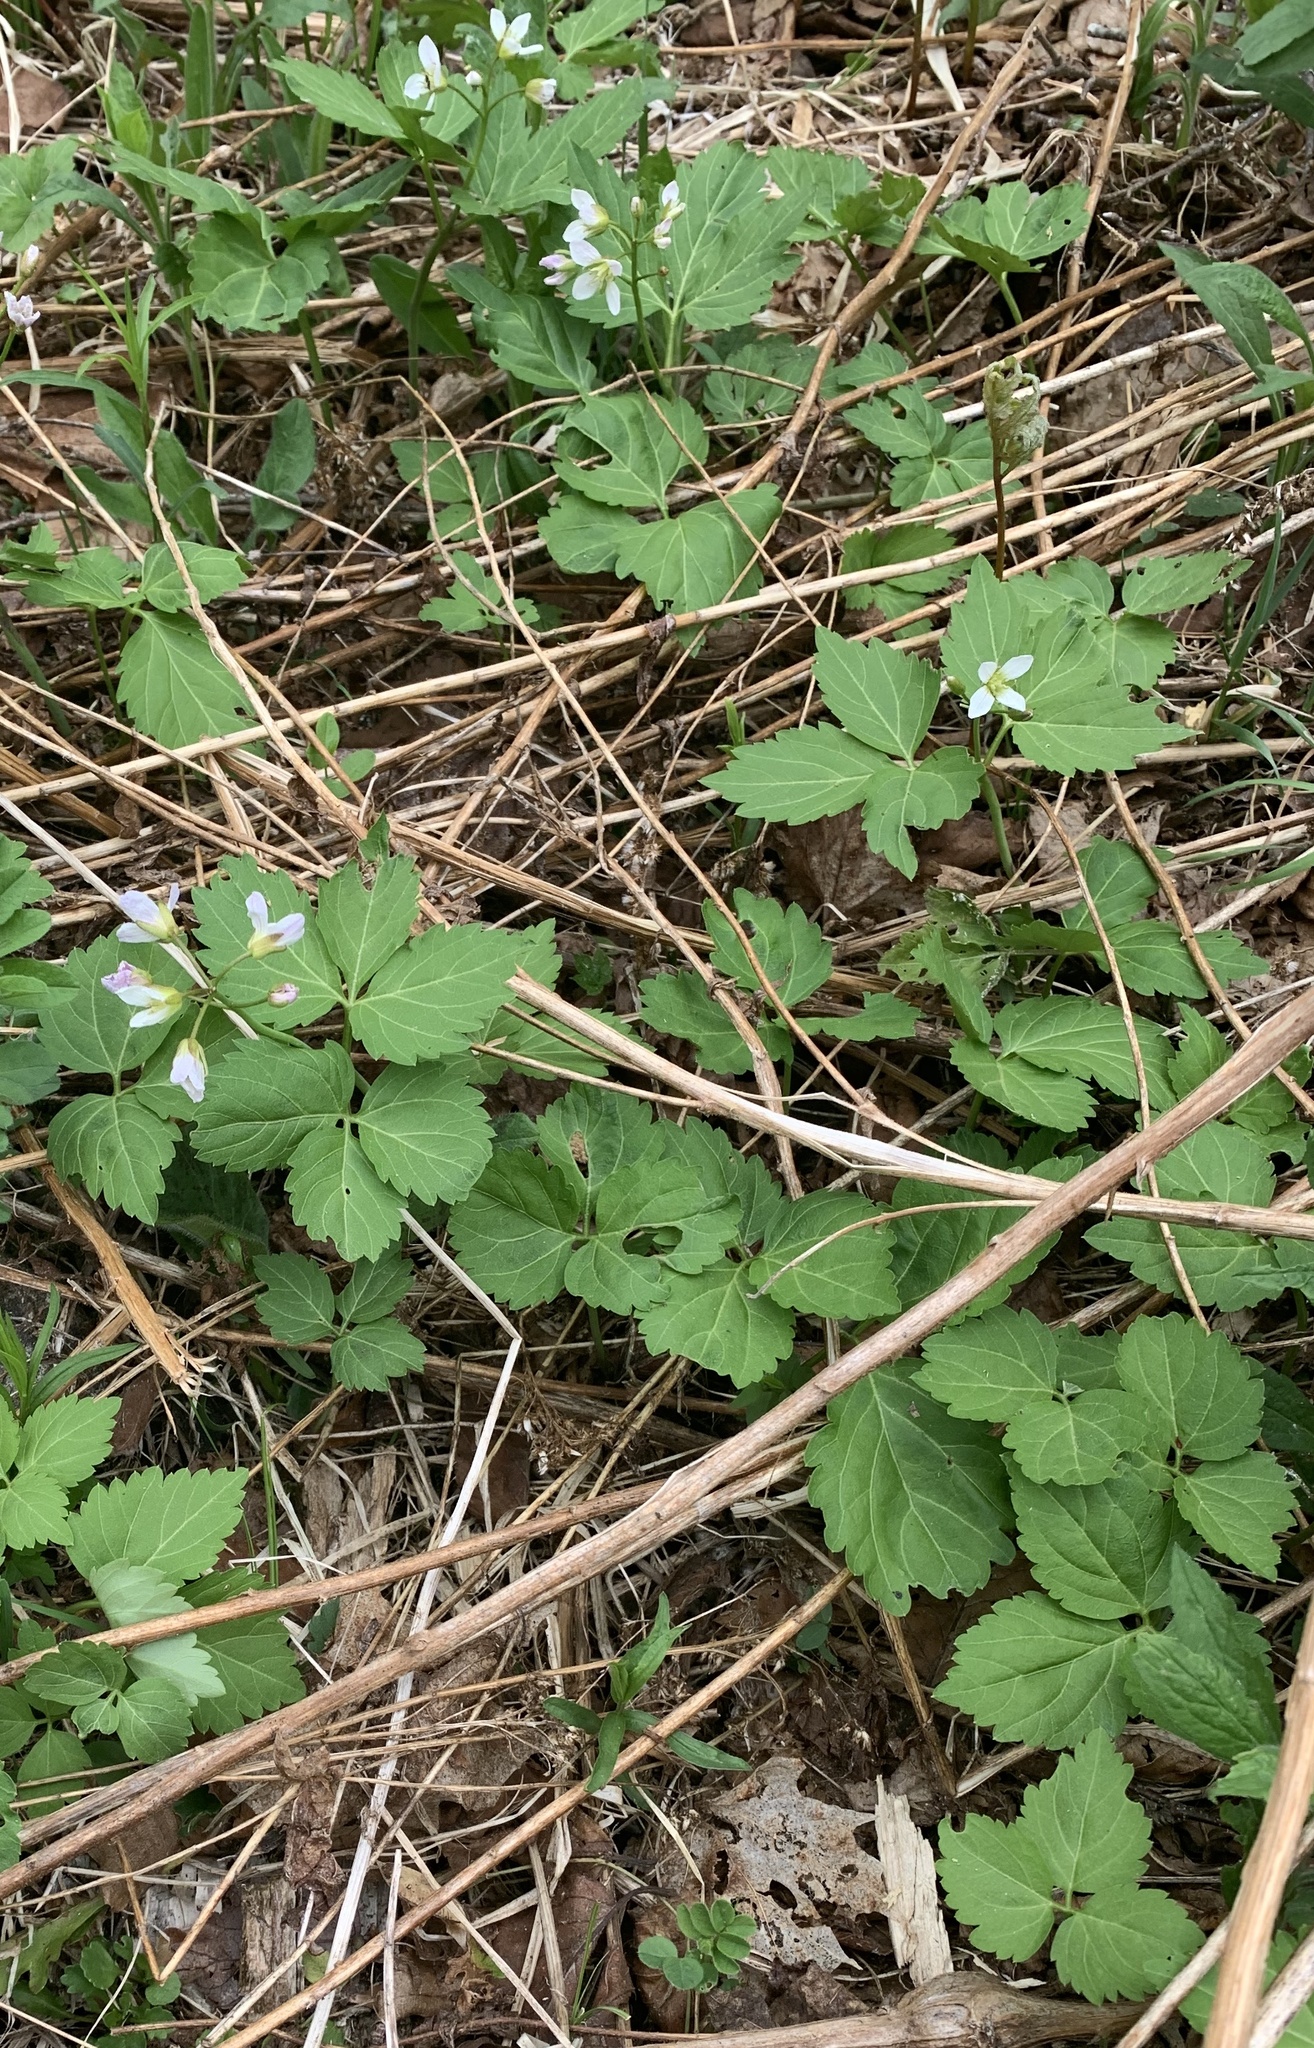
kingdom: Plantae
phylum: Tracheophyta
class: Magnoliopsida
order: Brassicales
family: Brassicaceae
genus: Cardamine
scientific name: Cardamine diphylla
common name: Broad-leaved toothwort
